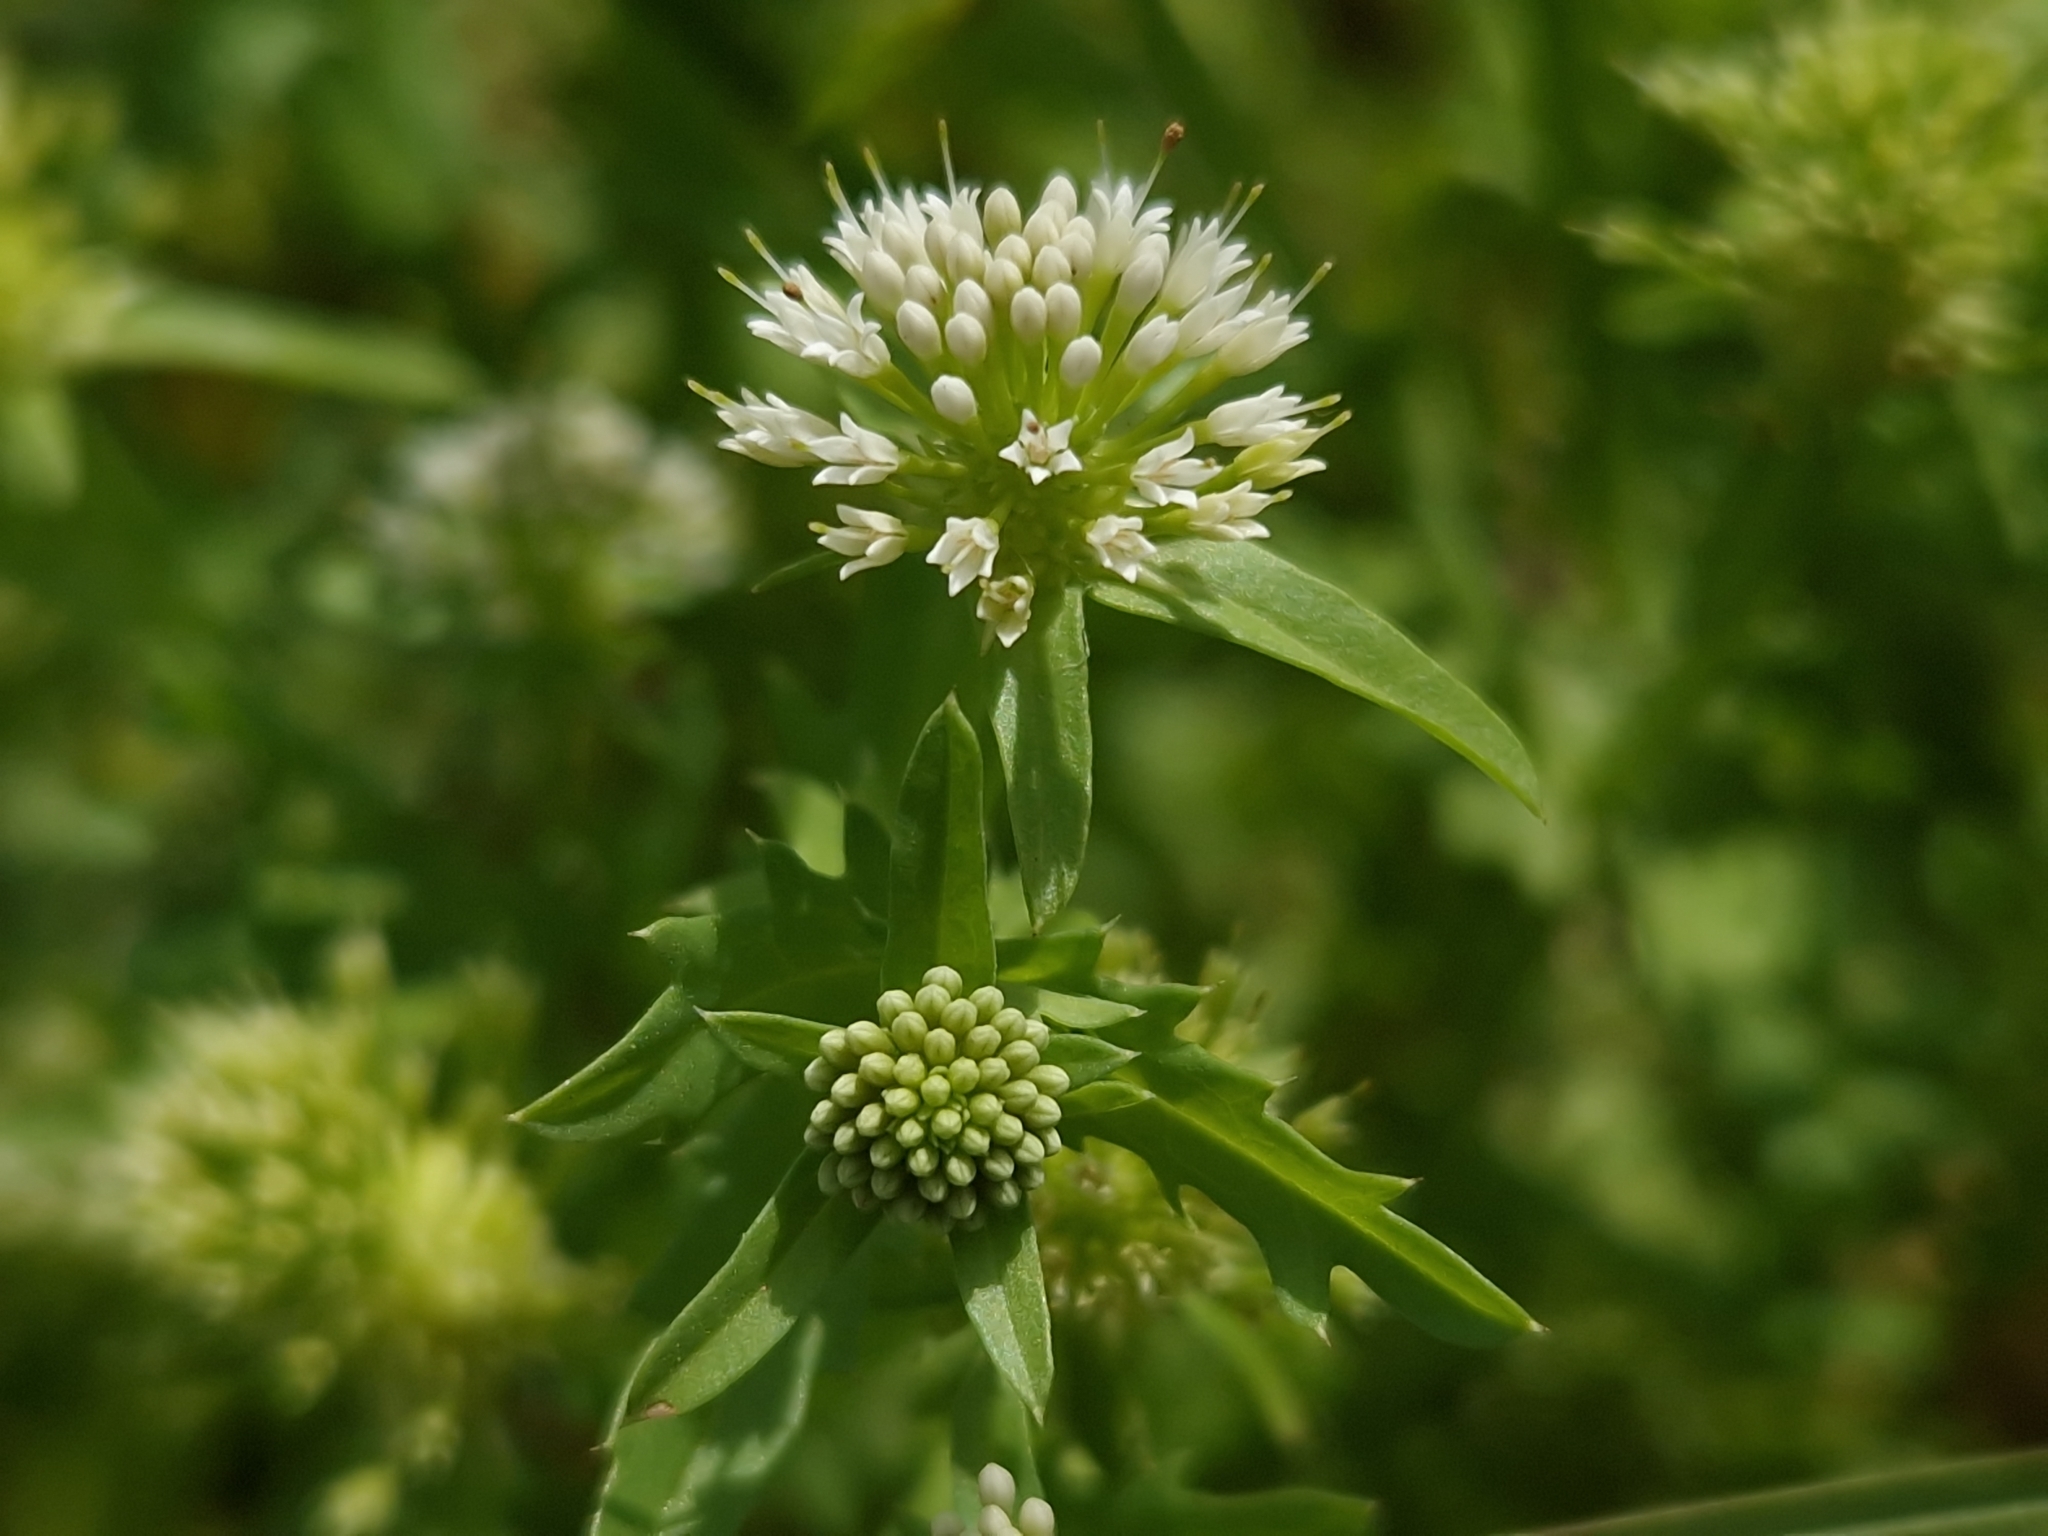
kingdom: Plantae
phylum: Tracheophyta
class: Magnoliopsida
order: Asterales
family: Calyceraceae
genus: Acicarpha
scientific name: Acicarpha tribuloides
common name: Madam gorgon
